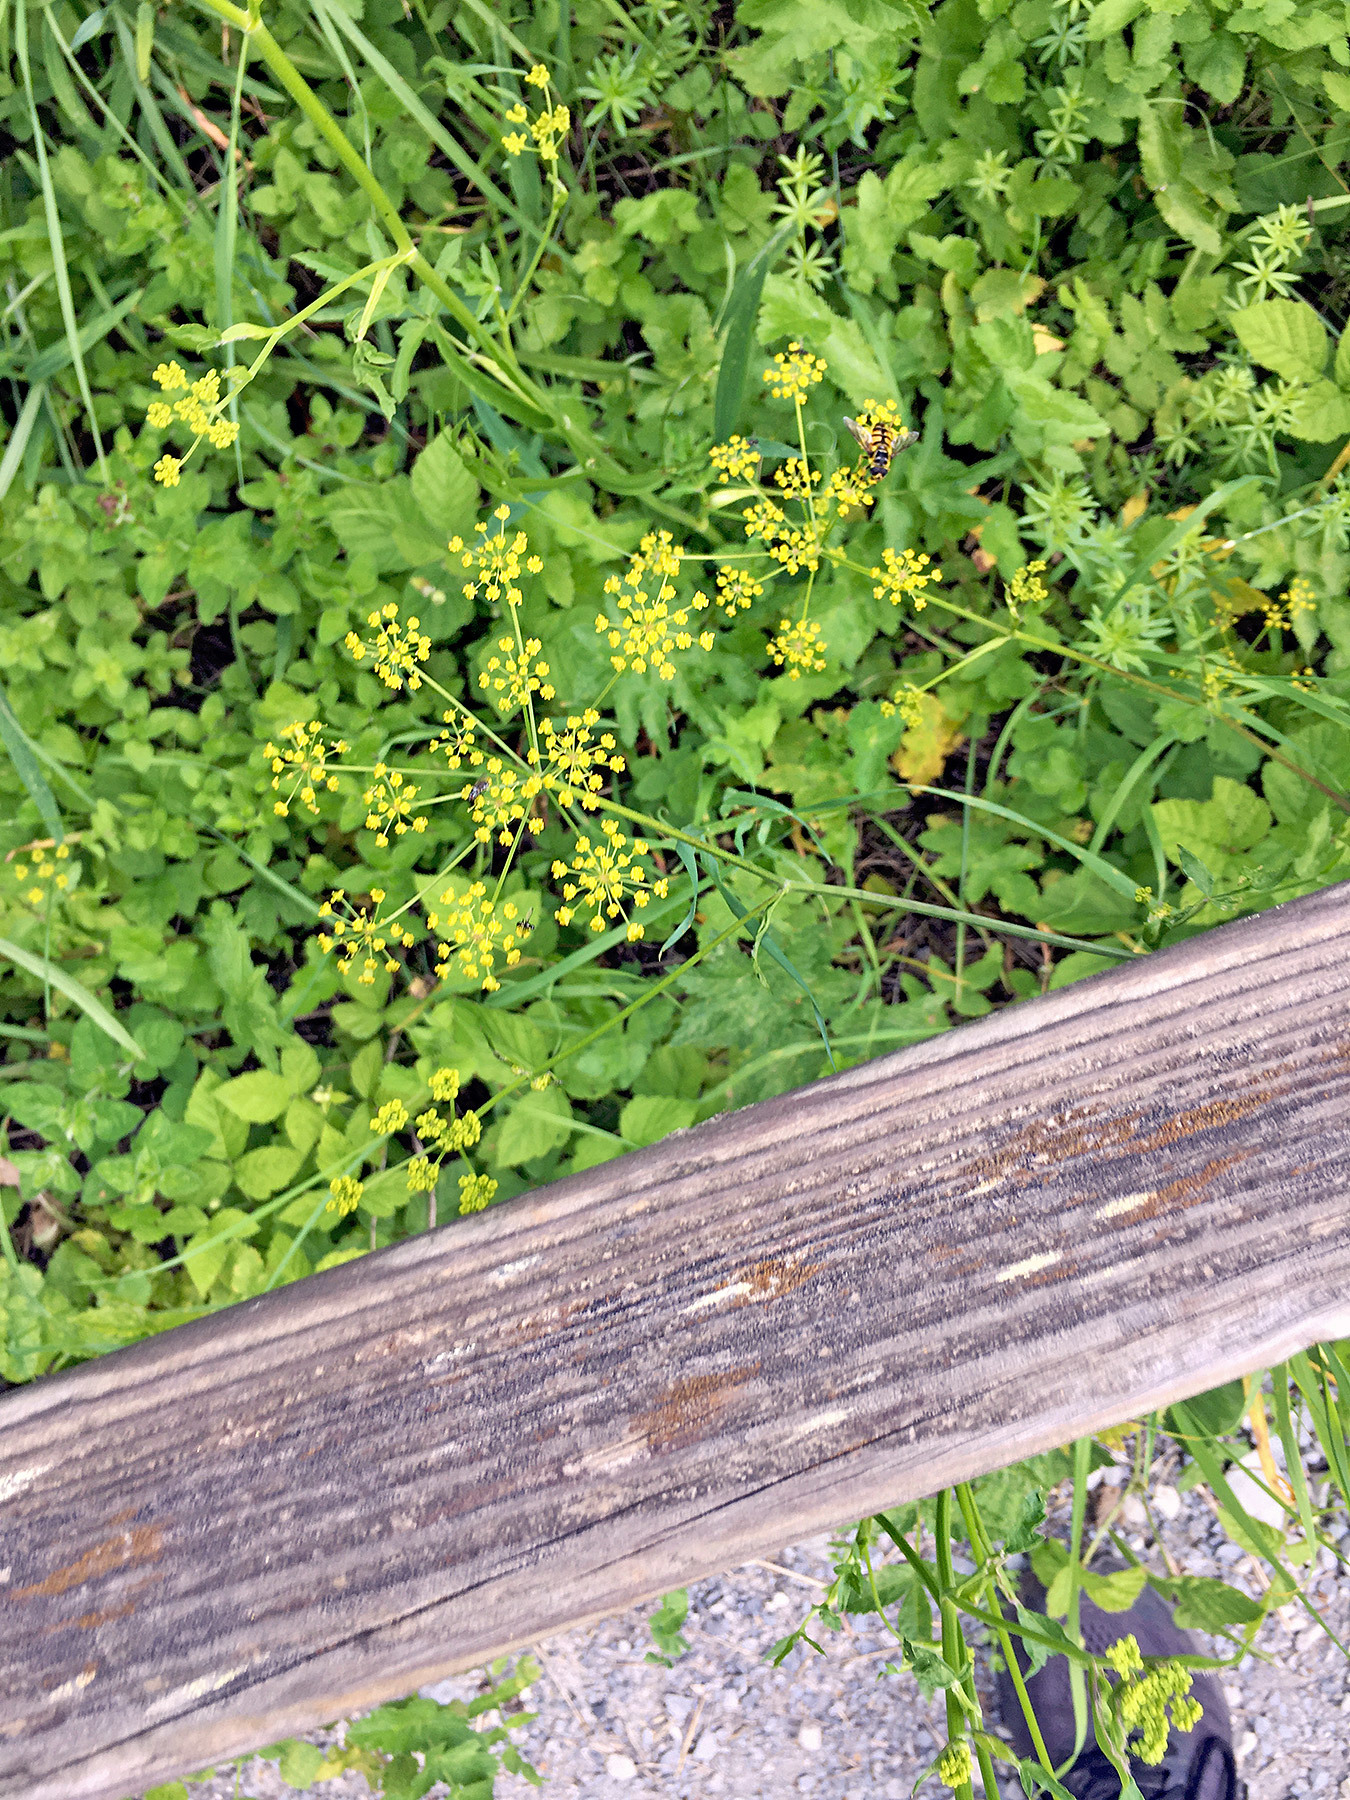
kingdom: Plantae
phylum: Tracheophyta
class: Magnoliopsida
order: Apiales
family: Apiaceae
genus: Pastinaca
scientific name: Pastinaca sativa
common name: Wild parsnip
